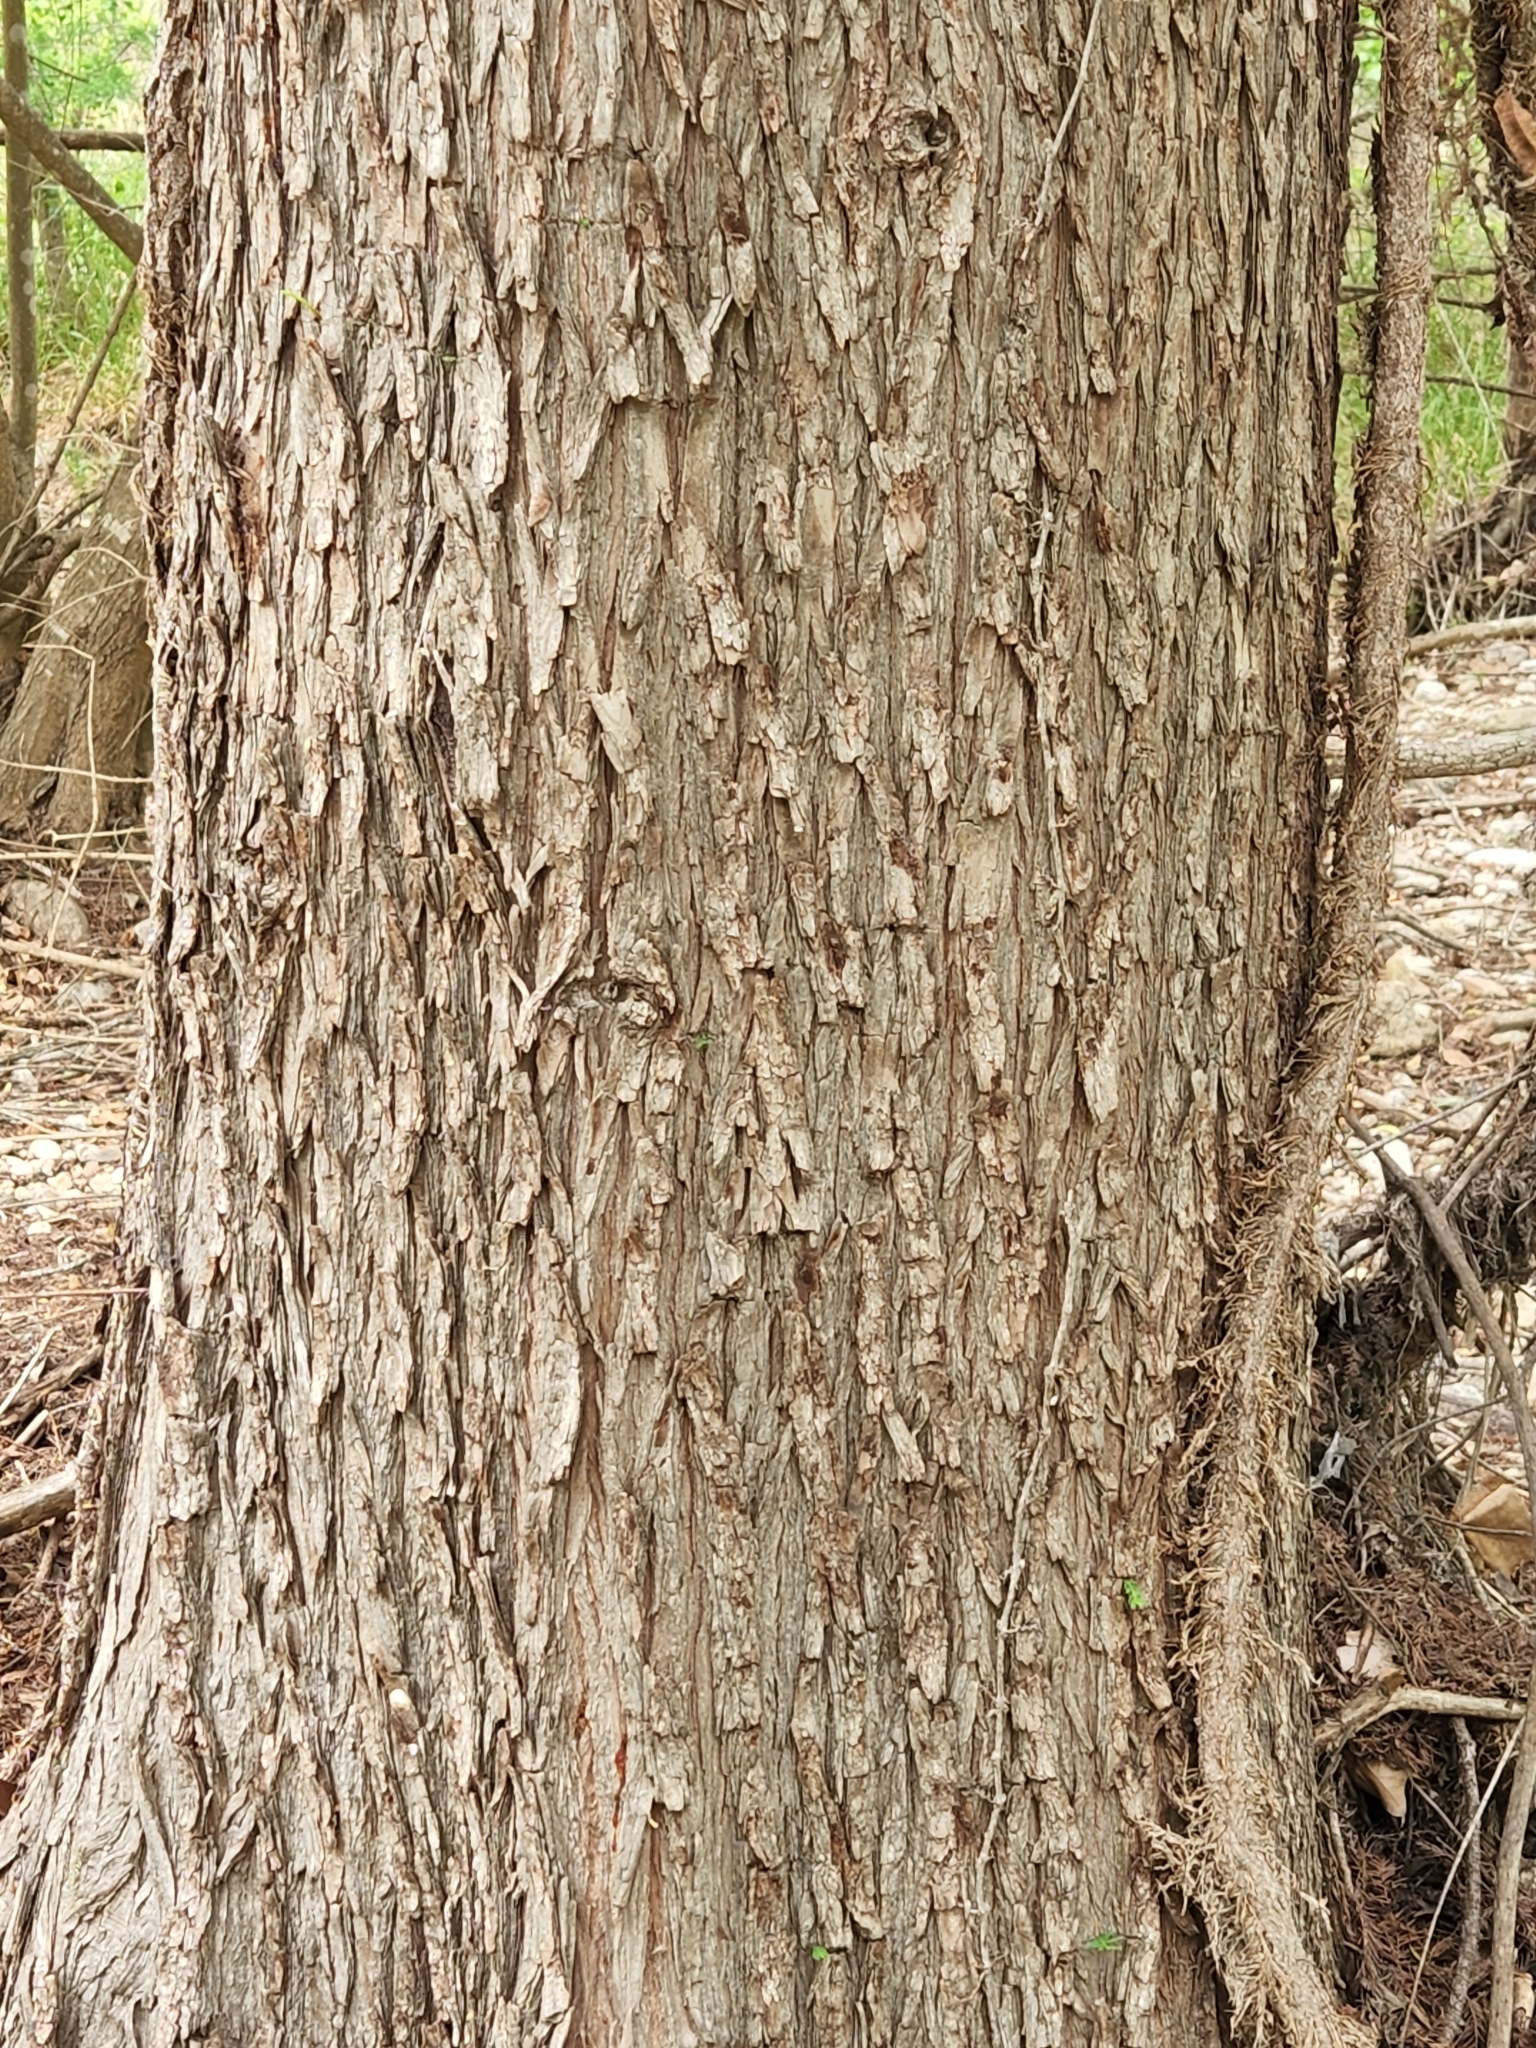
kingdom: Plantae
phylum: Tracheophyta
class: Pinopsida
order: Pinales
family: Cupressaceae
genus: Taxodium
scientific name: Taxodium distichum
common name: Bald cypress
